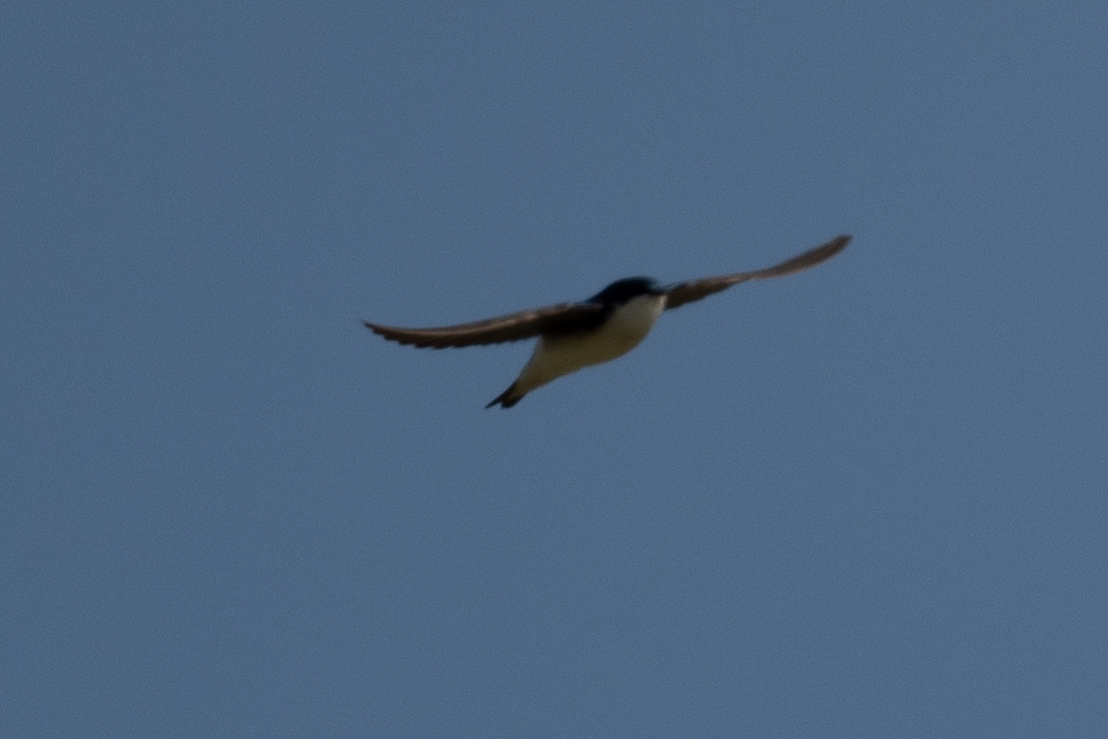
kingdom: Animalia
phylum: Chordata
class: Aves
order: Passeriformes
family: Hirundinidae
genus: Tachycineta
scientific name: Tachycineta bicolor
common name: Tree swallow
